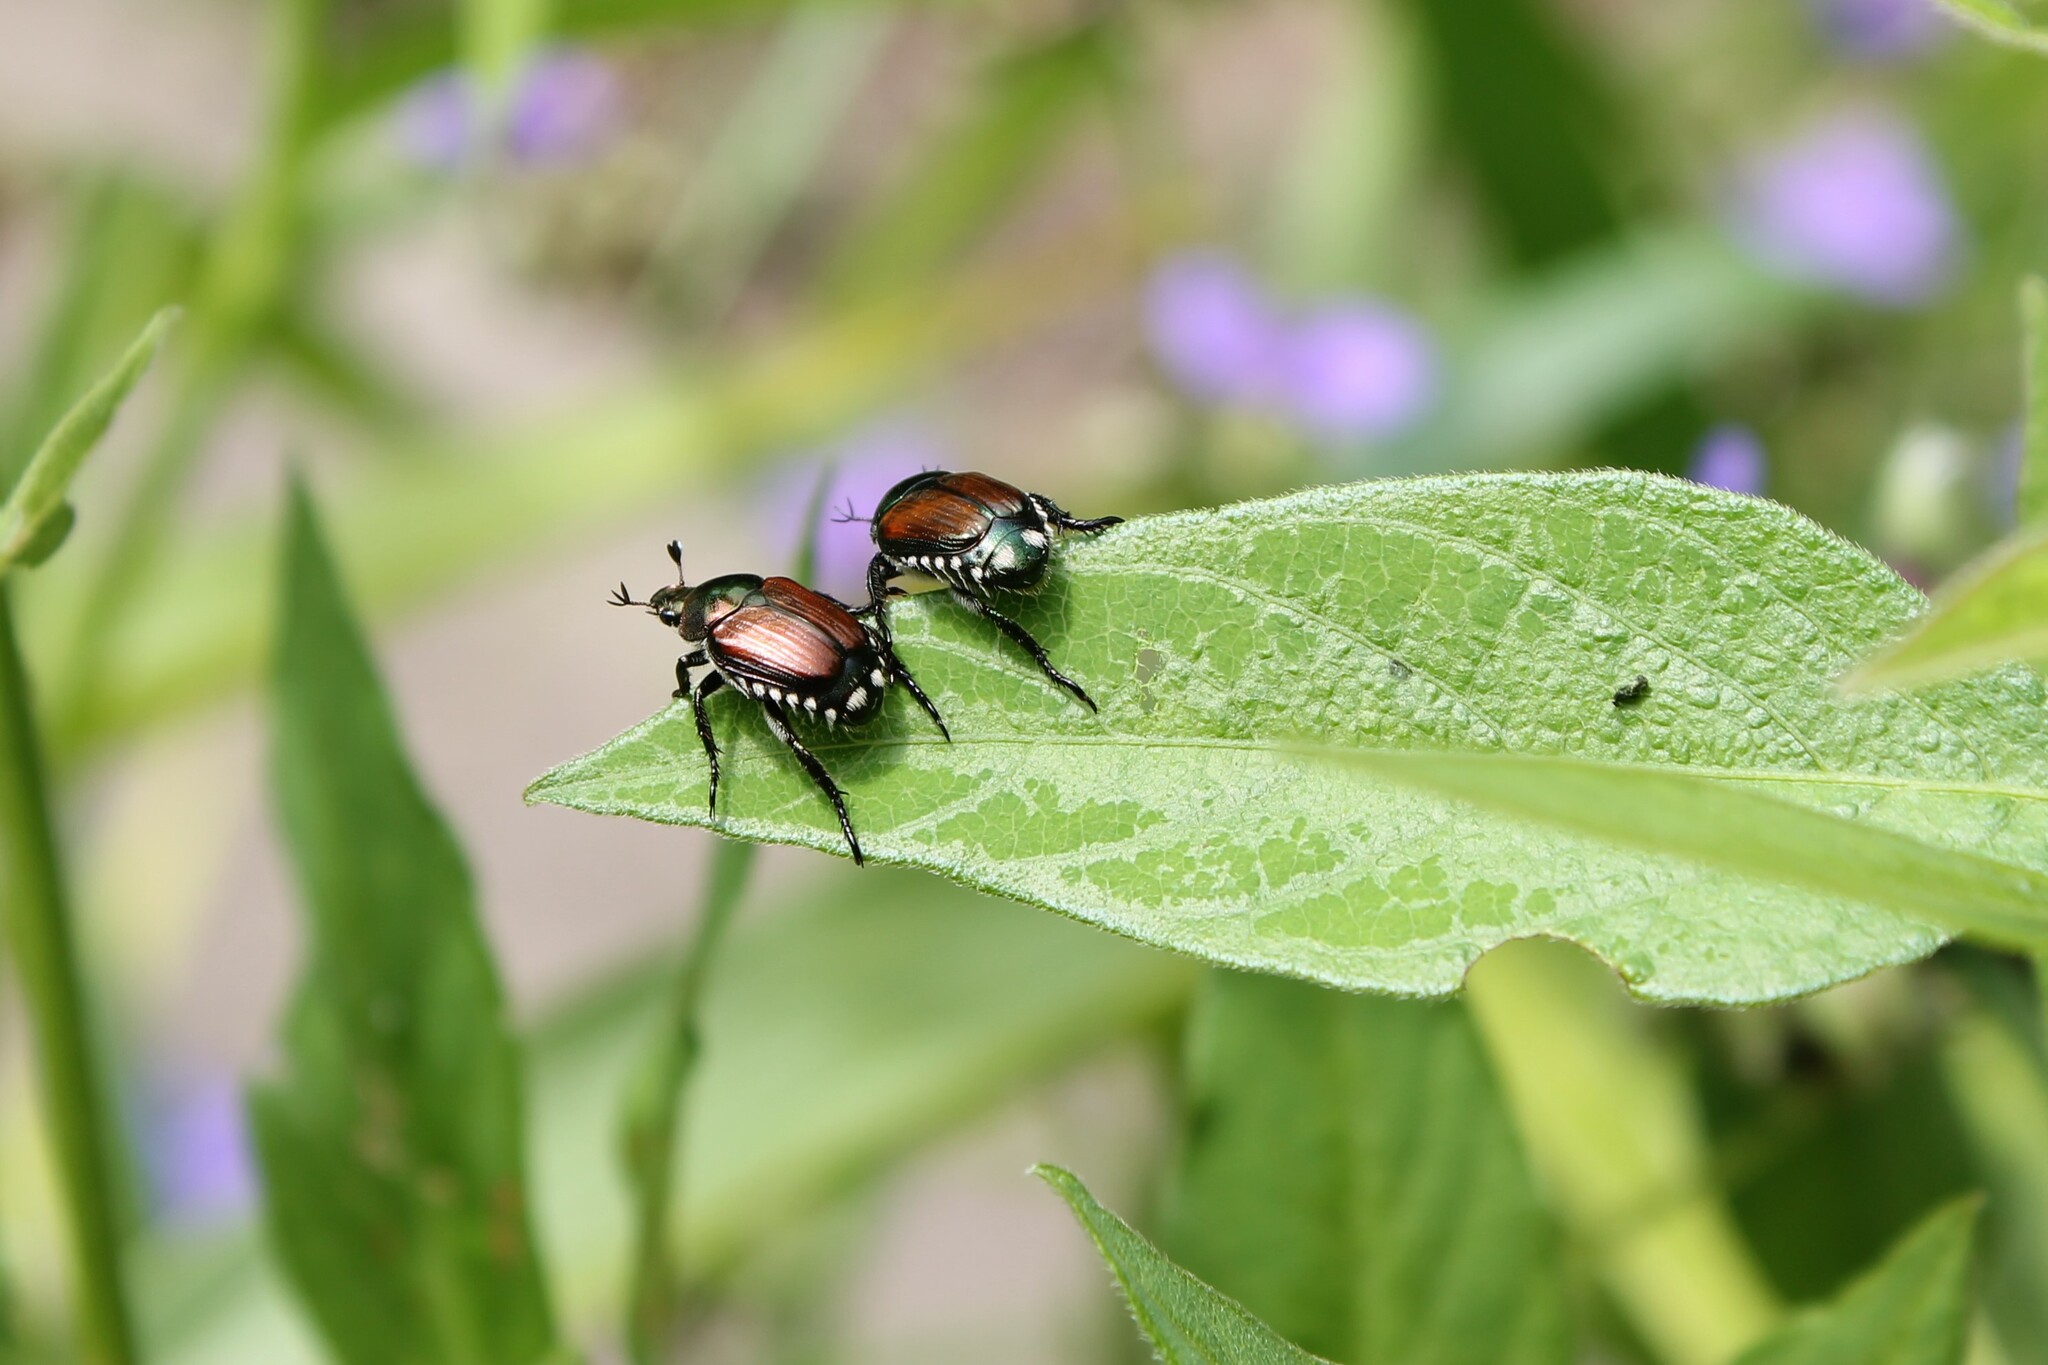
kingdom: Animalia
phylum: Arthropoda
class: Insecta
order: Coleoptera
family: Scarabaeidae
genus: Popillia
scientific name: Popillia japonica
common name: Japanese beetle
